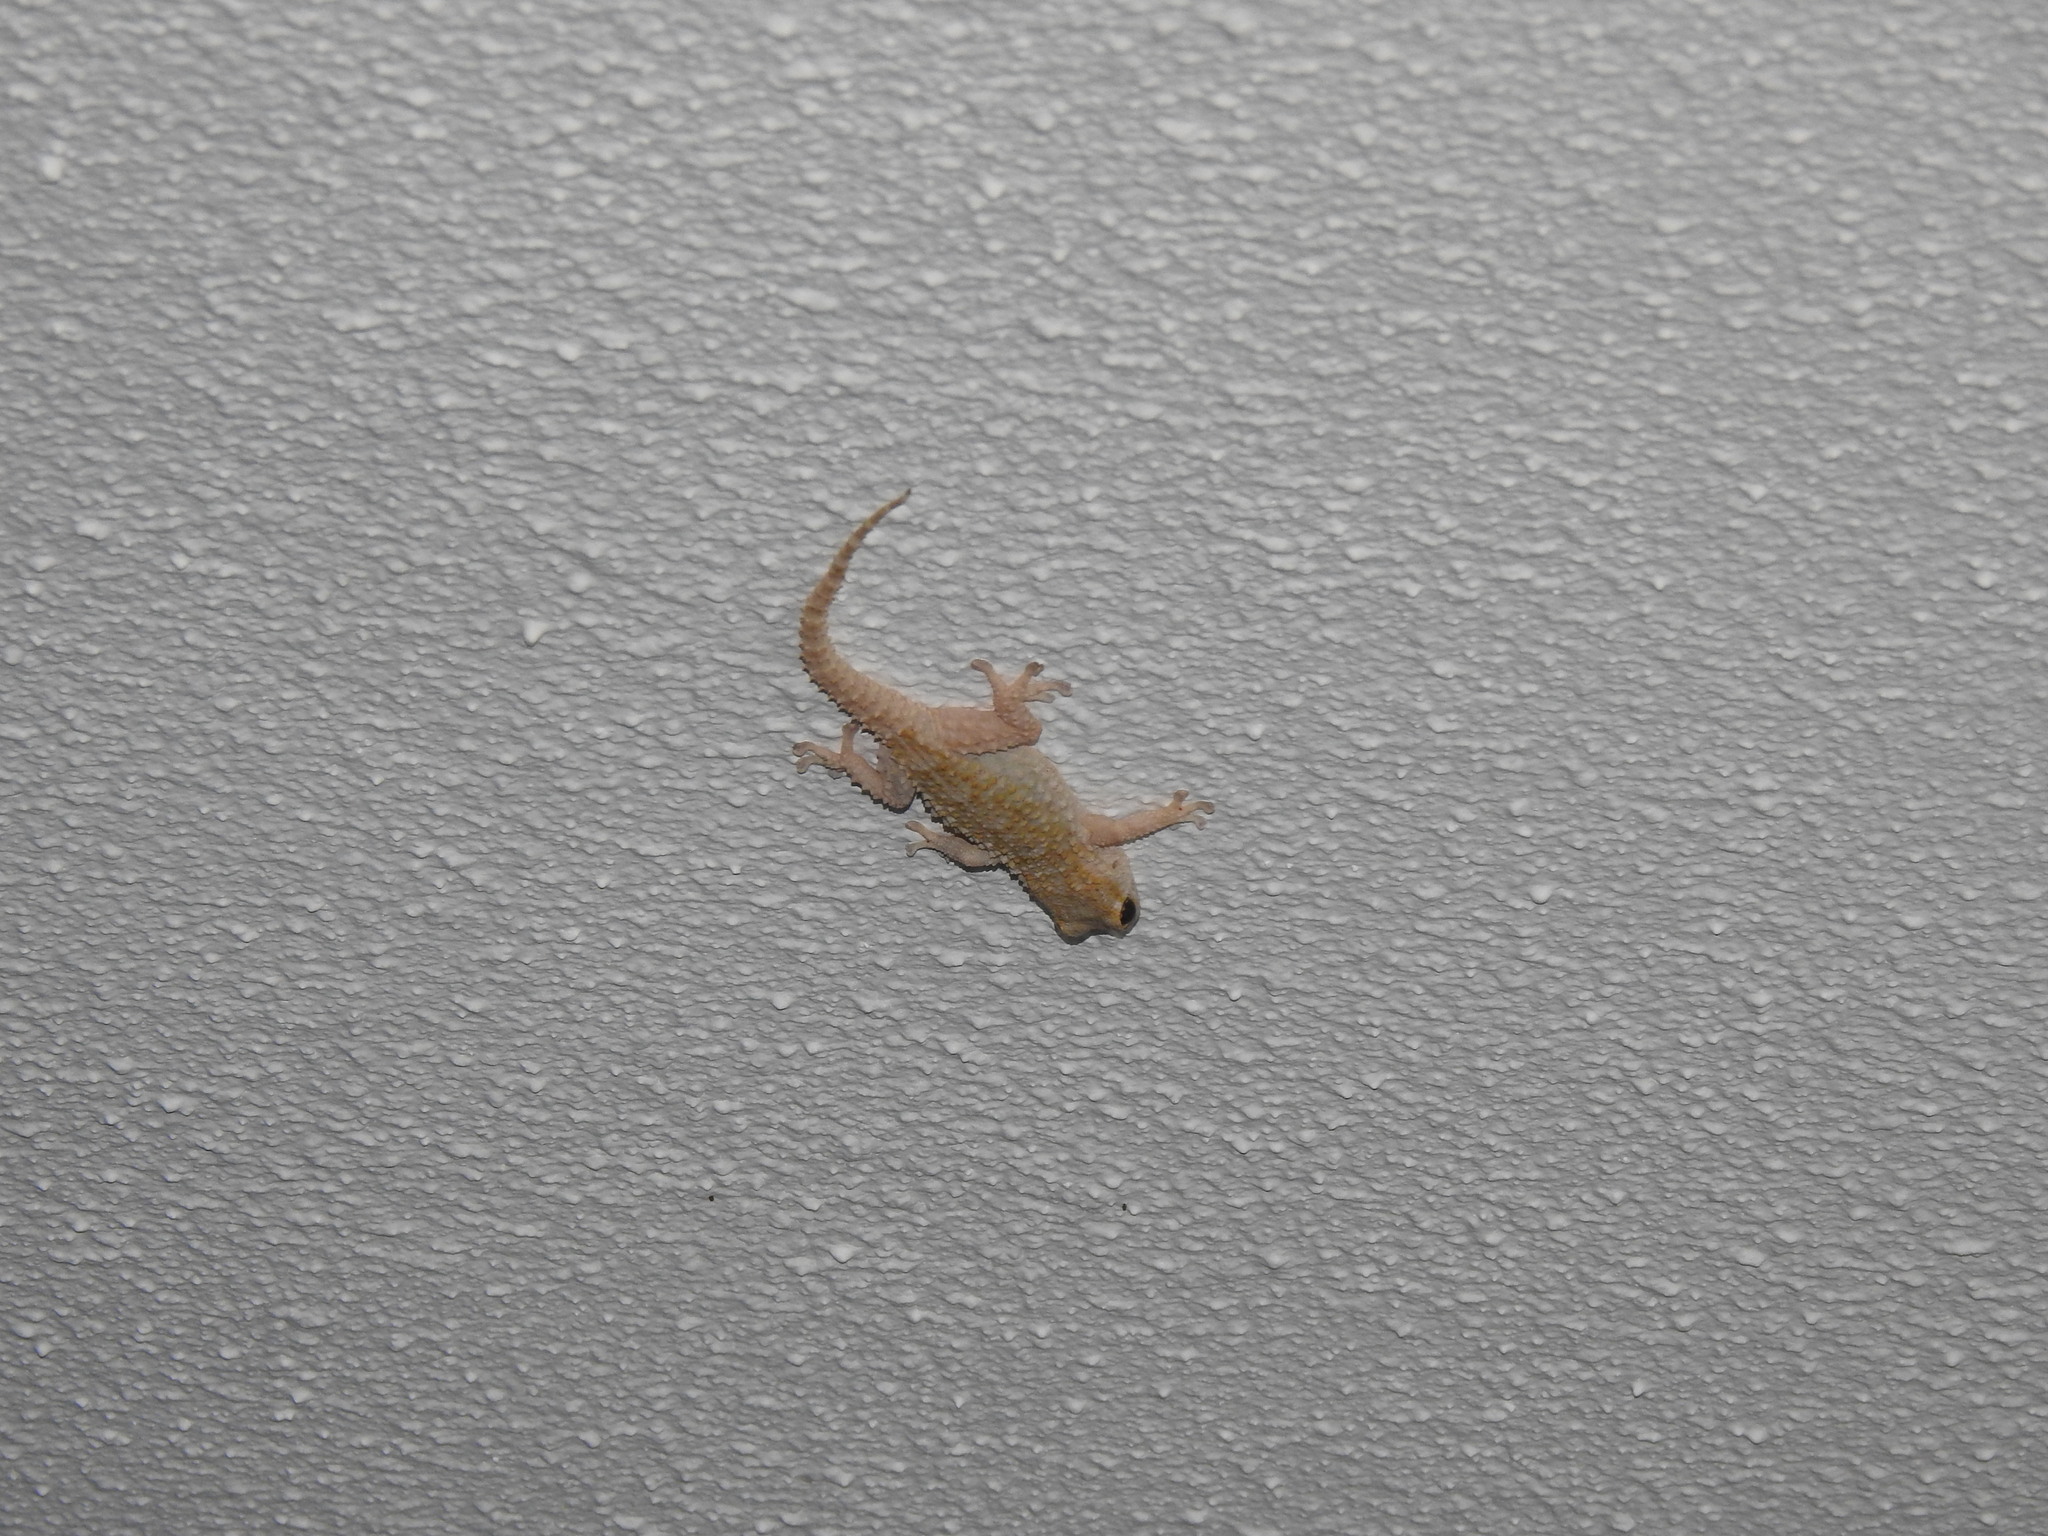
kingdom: Animalia
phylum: Chordata
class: Squamata
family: Phyllodactylidae
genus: Tarentola
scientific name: Tarentola mauritanica
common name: Moorish gecko
